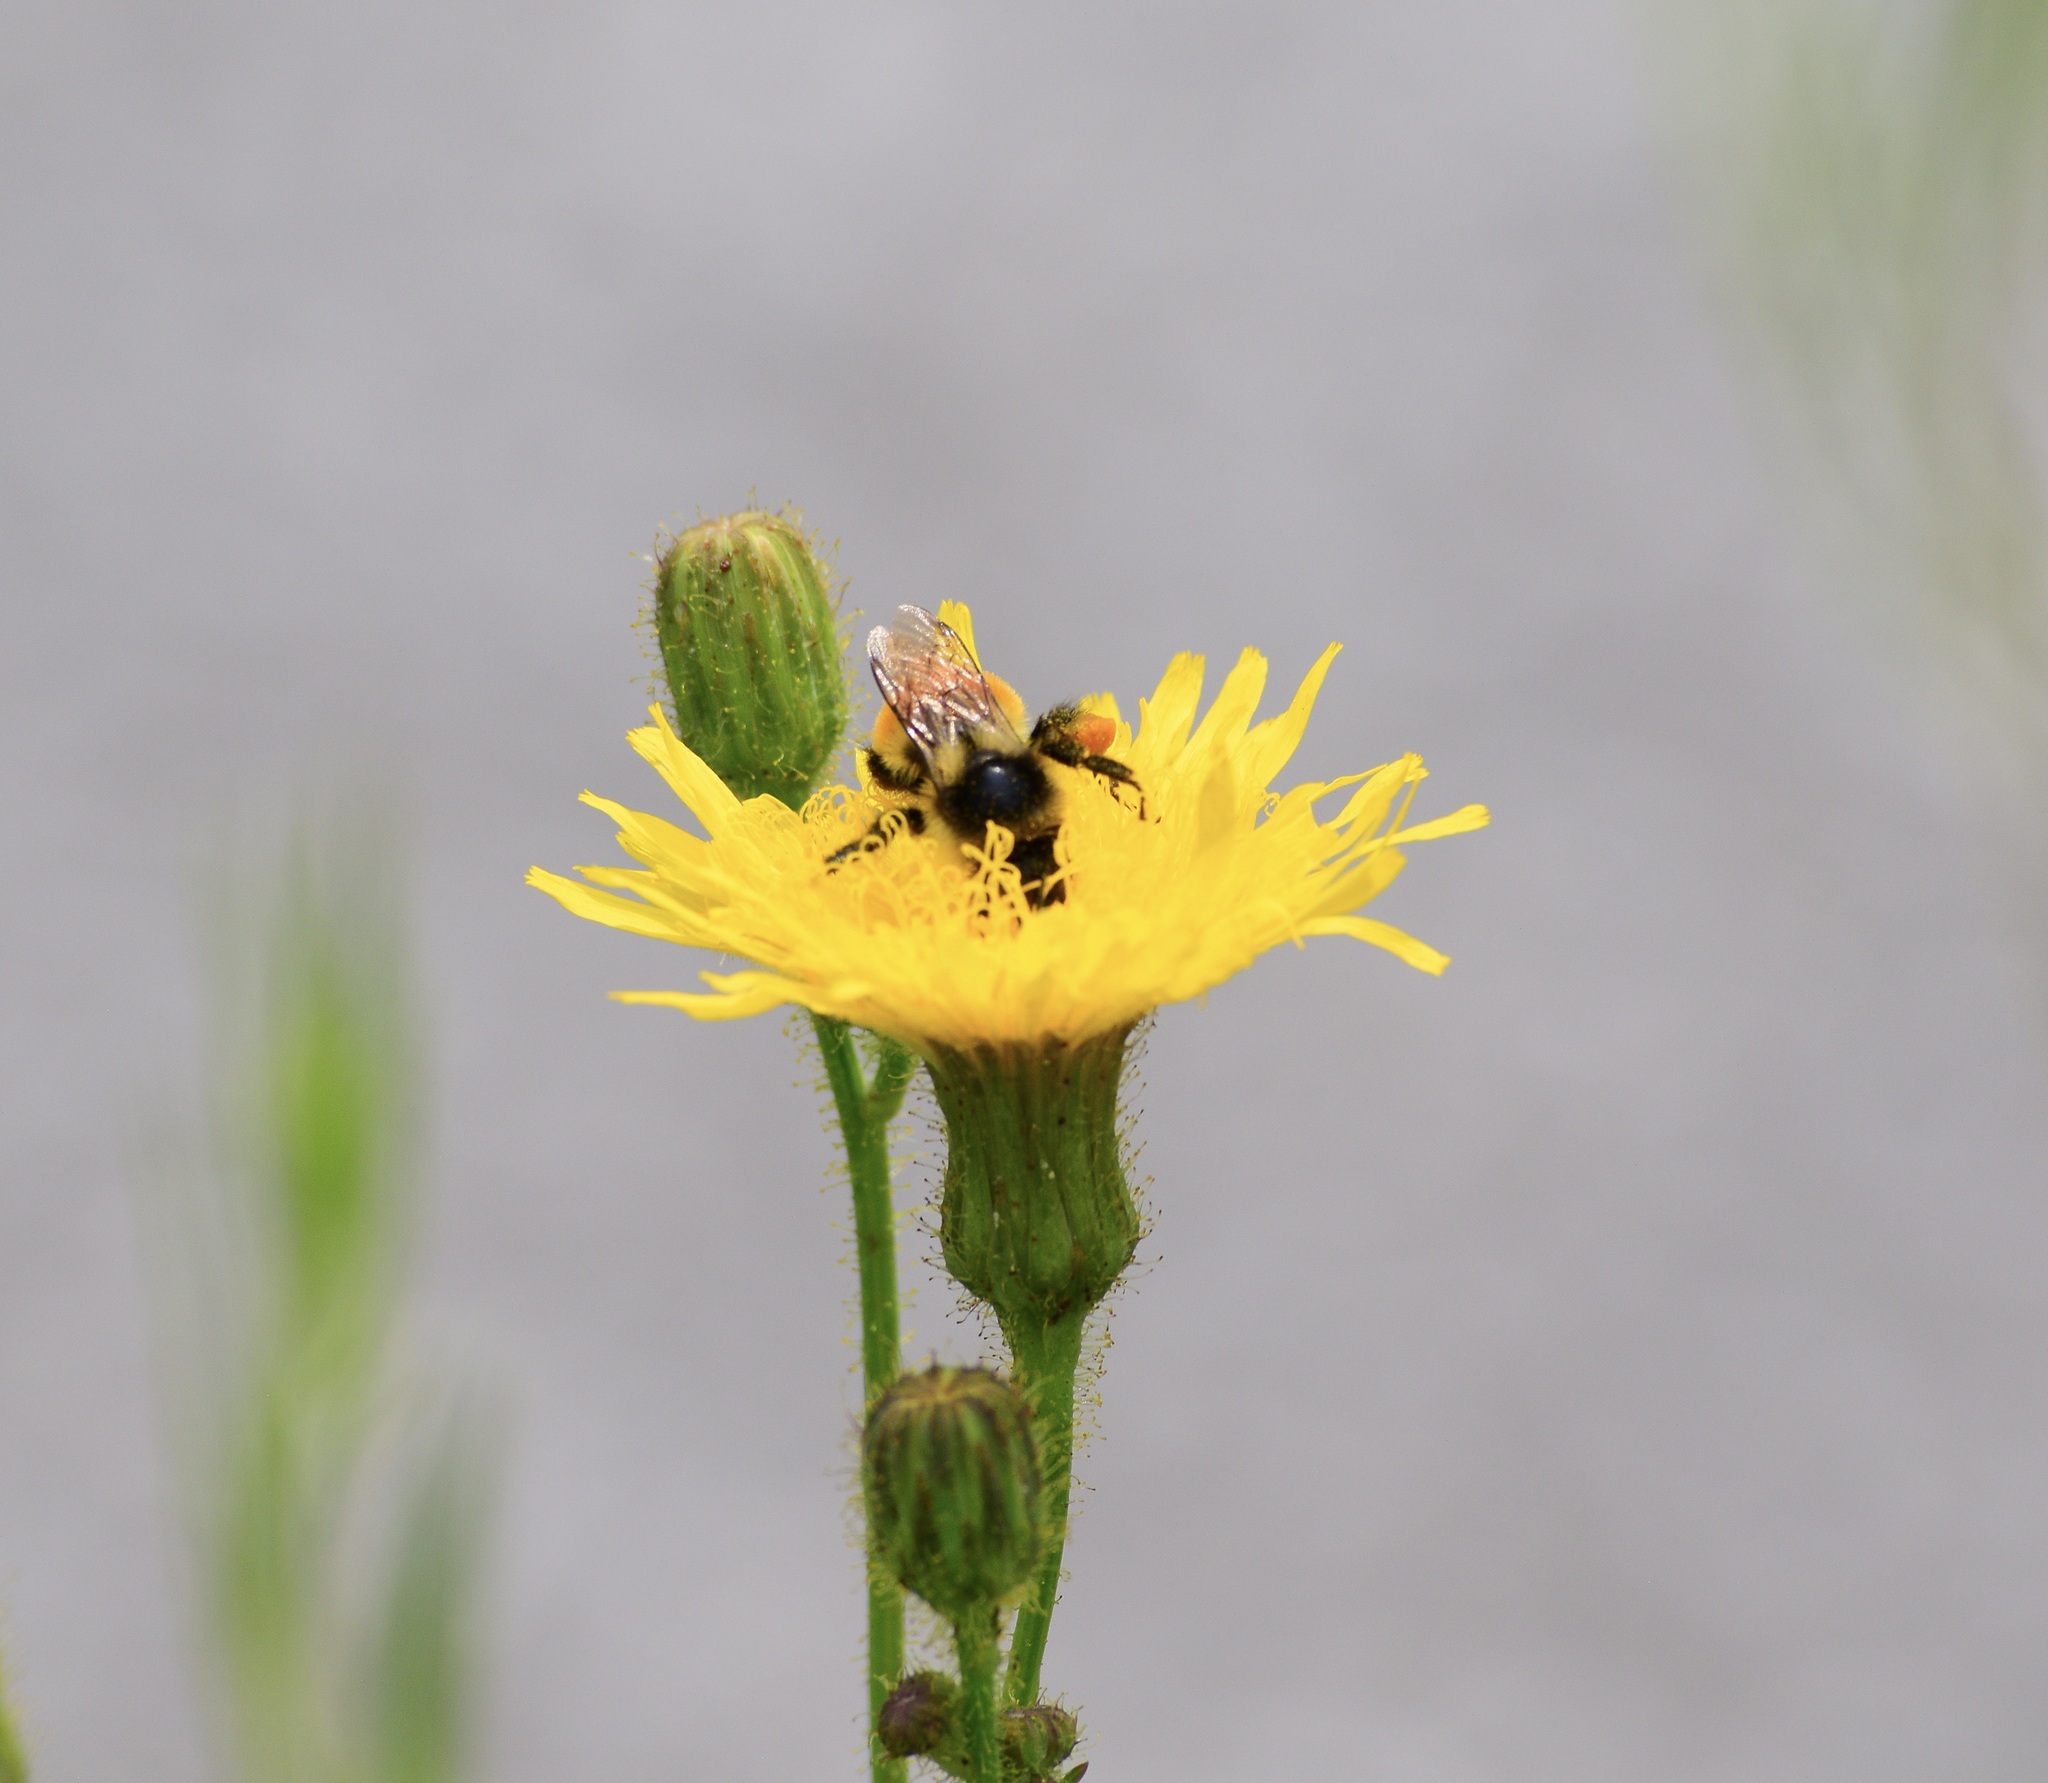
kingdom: Animalia
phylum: Arthropoda
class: Insecta
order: Hymenoptera
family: Apidae
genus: Bombus
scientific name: Bombus ternarius
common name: Tri-colored bumble bee
